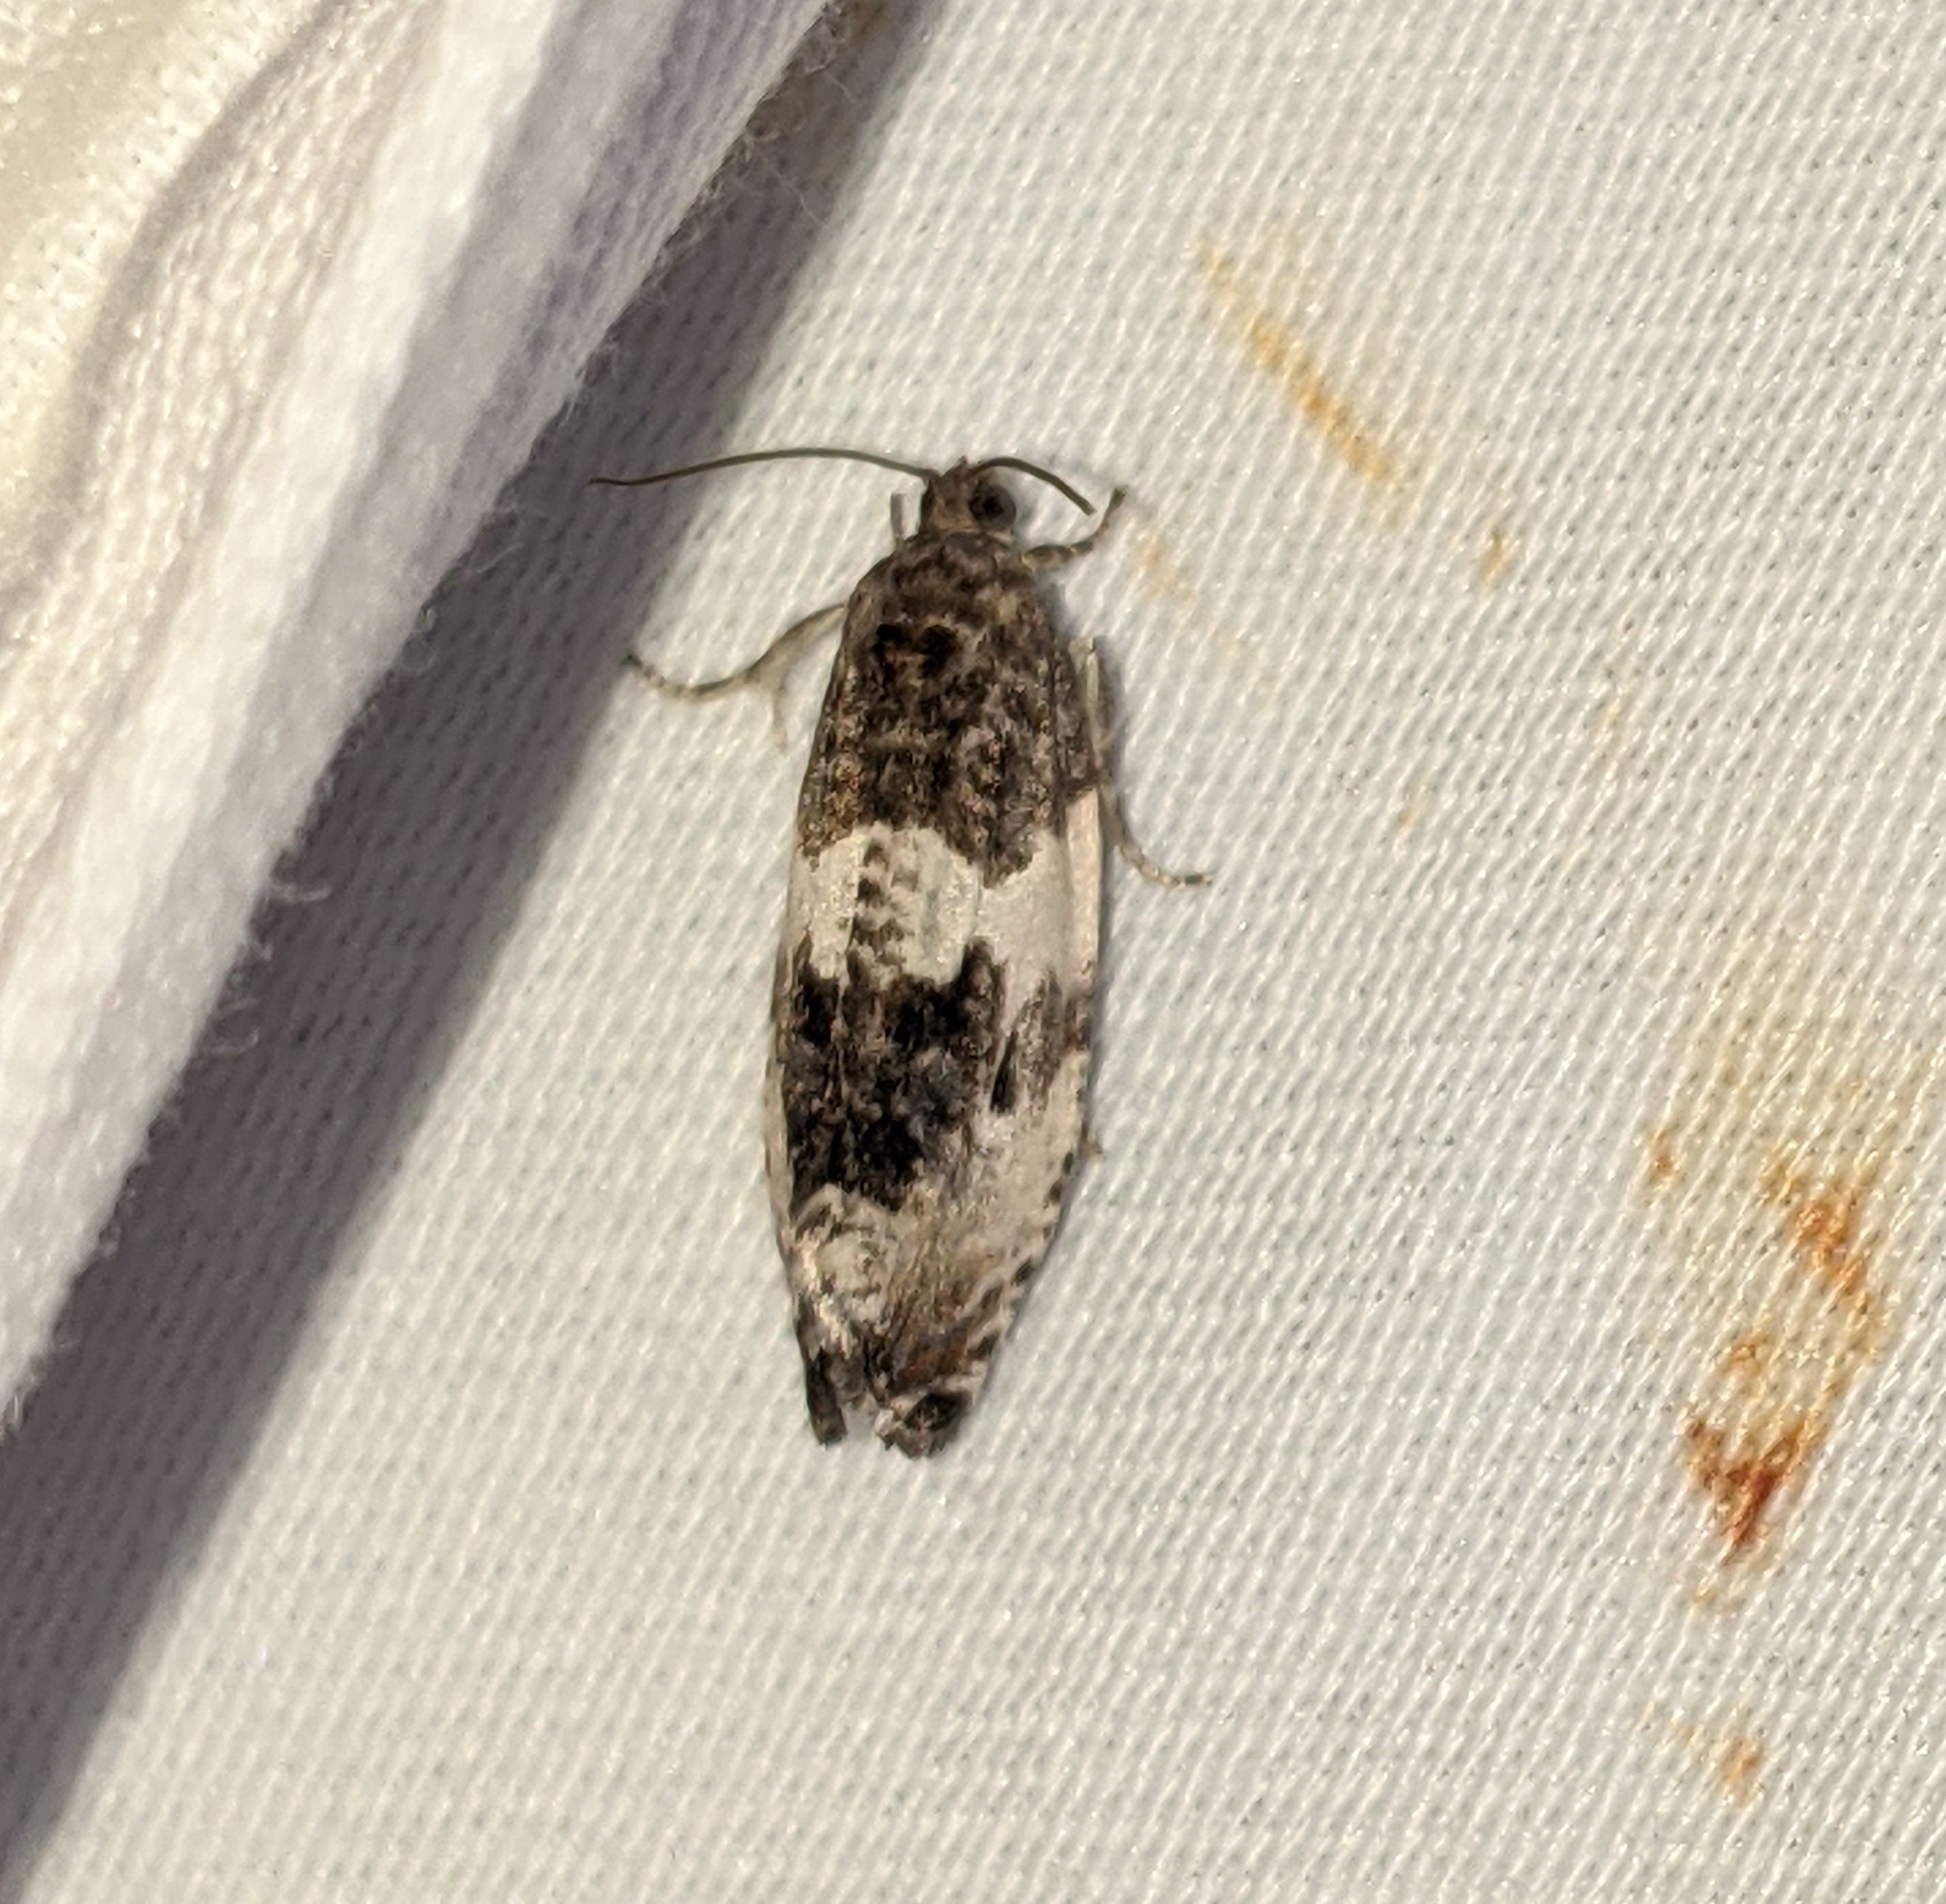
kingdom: Animalia
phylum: Arthropoda
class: Insecta
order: Lepidoptera
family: Tortricidae
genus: Pseudosciaphila
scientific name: Pseudosciaphila duplex
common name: Poplar leafroller moth
